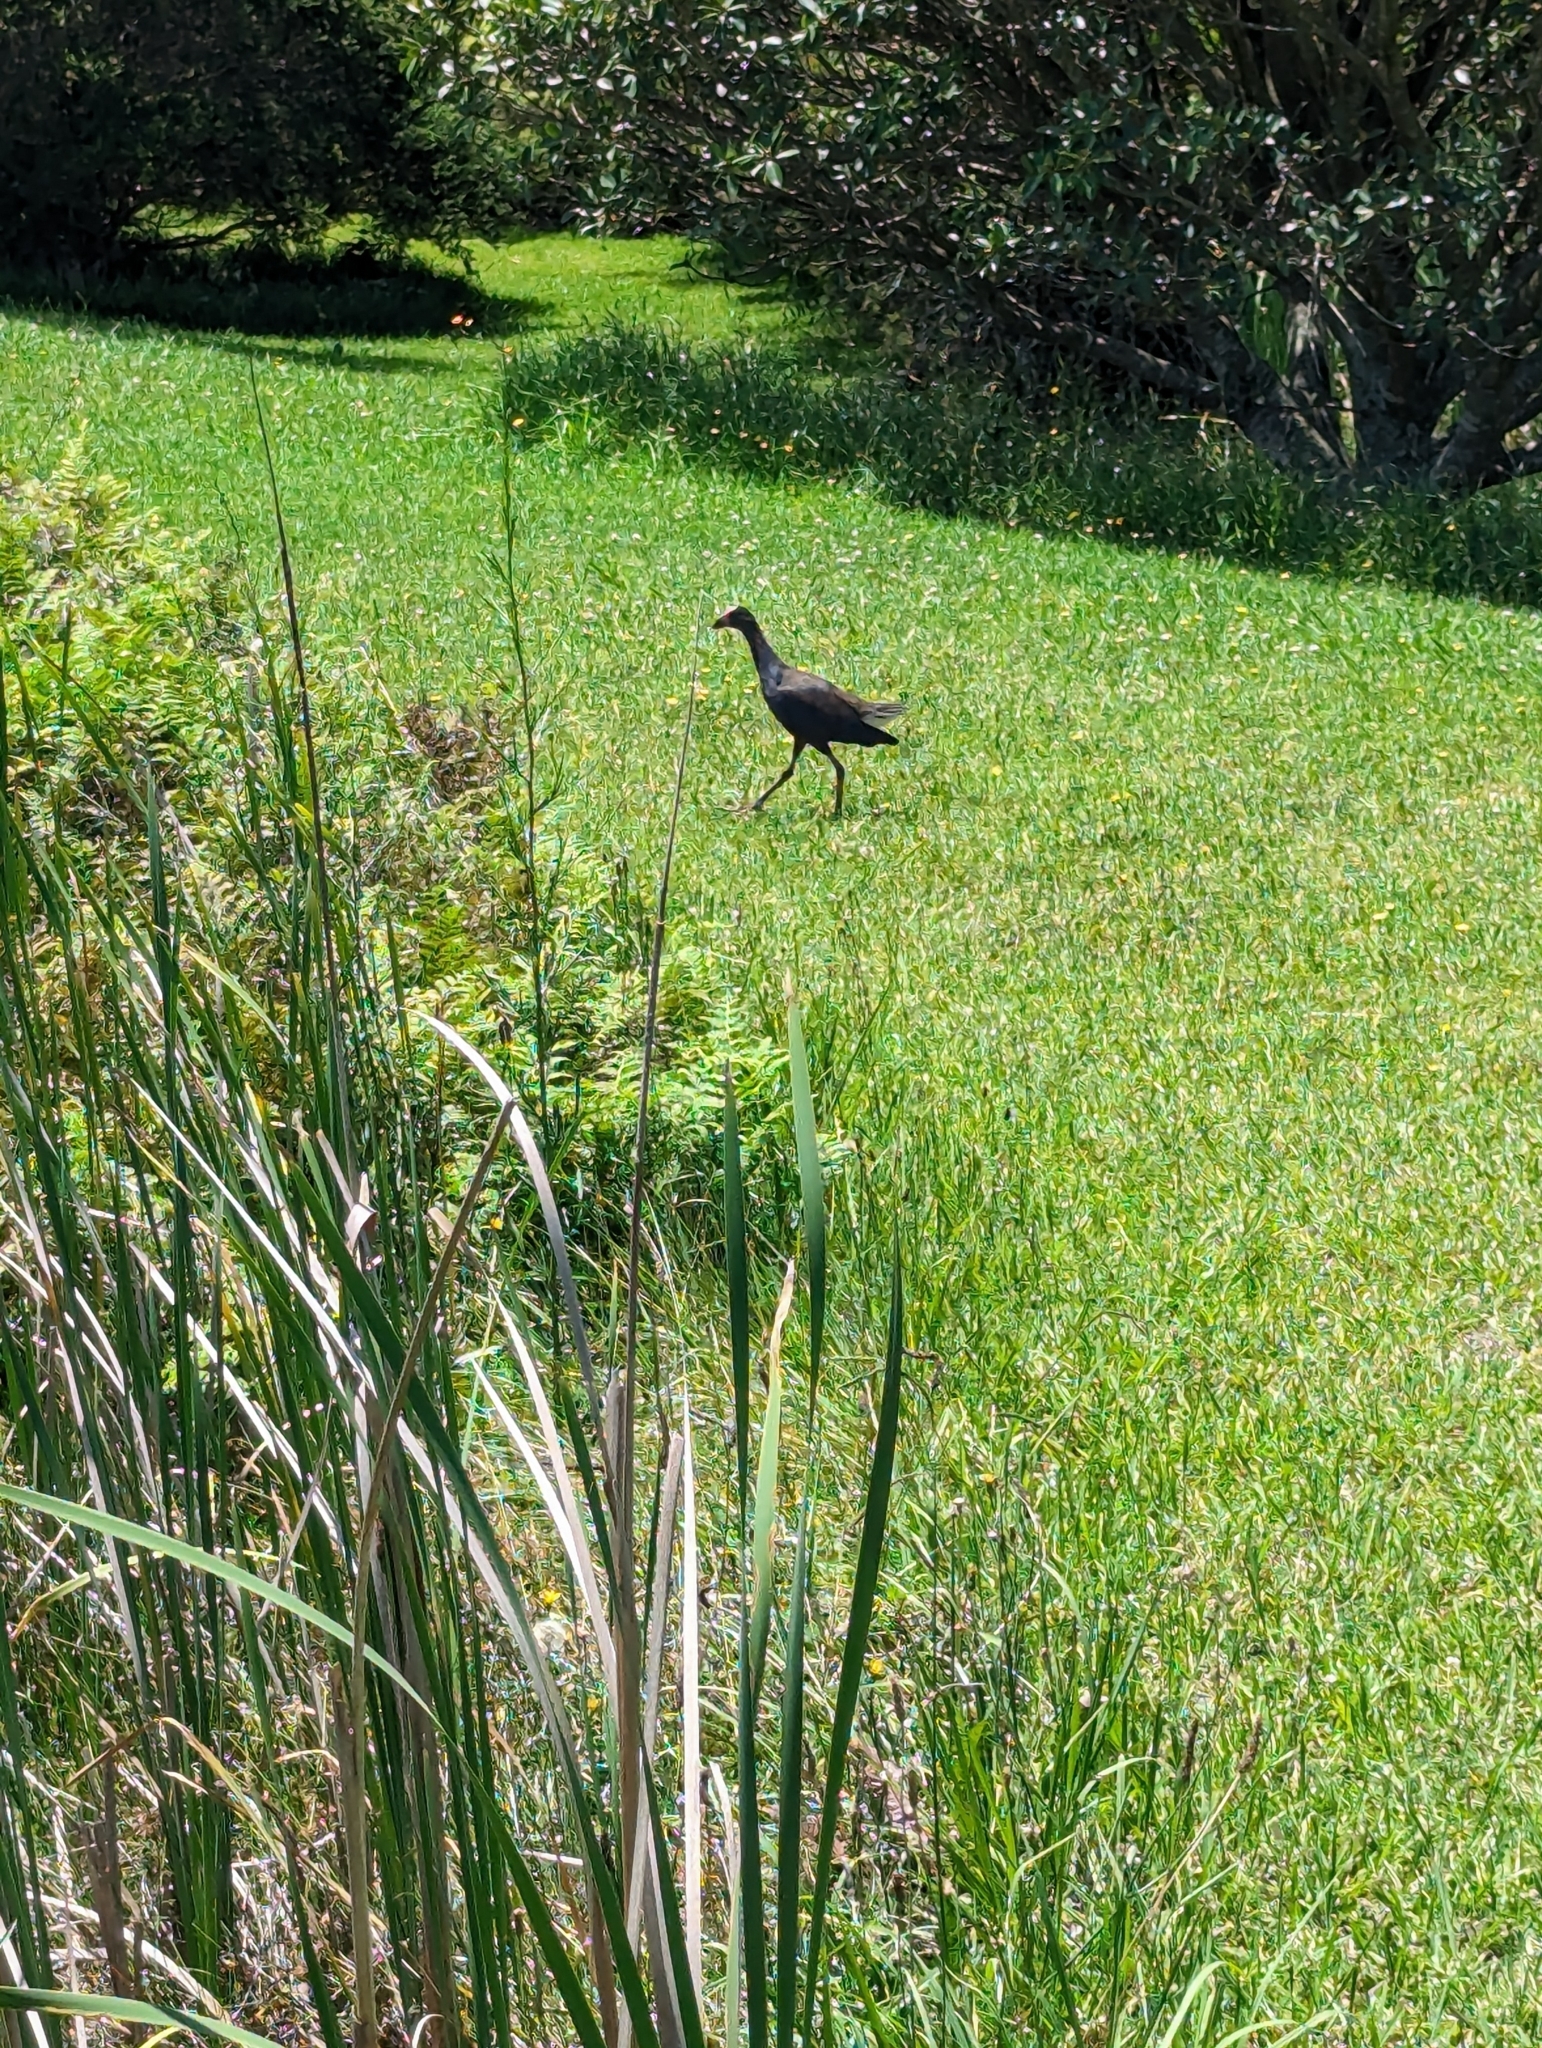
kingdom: Animalia
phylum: Chordata
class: Aves
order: Gruiformes
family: Rallidae
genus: Porphyrio
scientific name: Porphyrio melanotus
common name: Australasian swamphen
